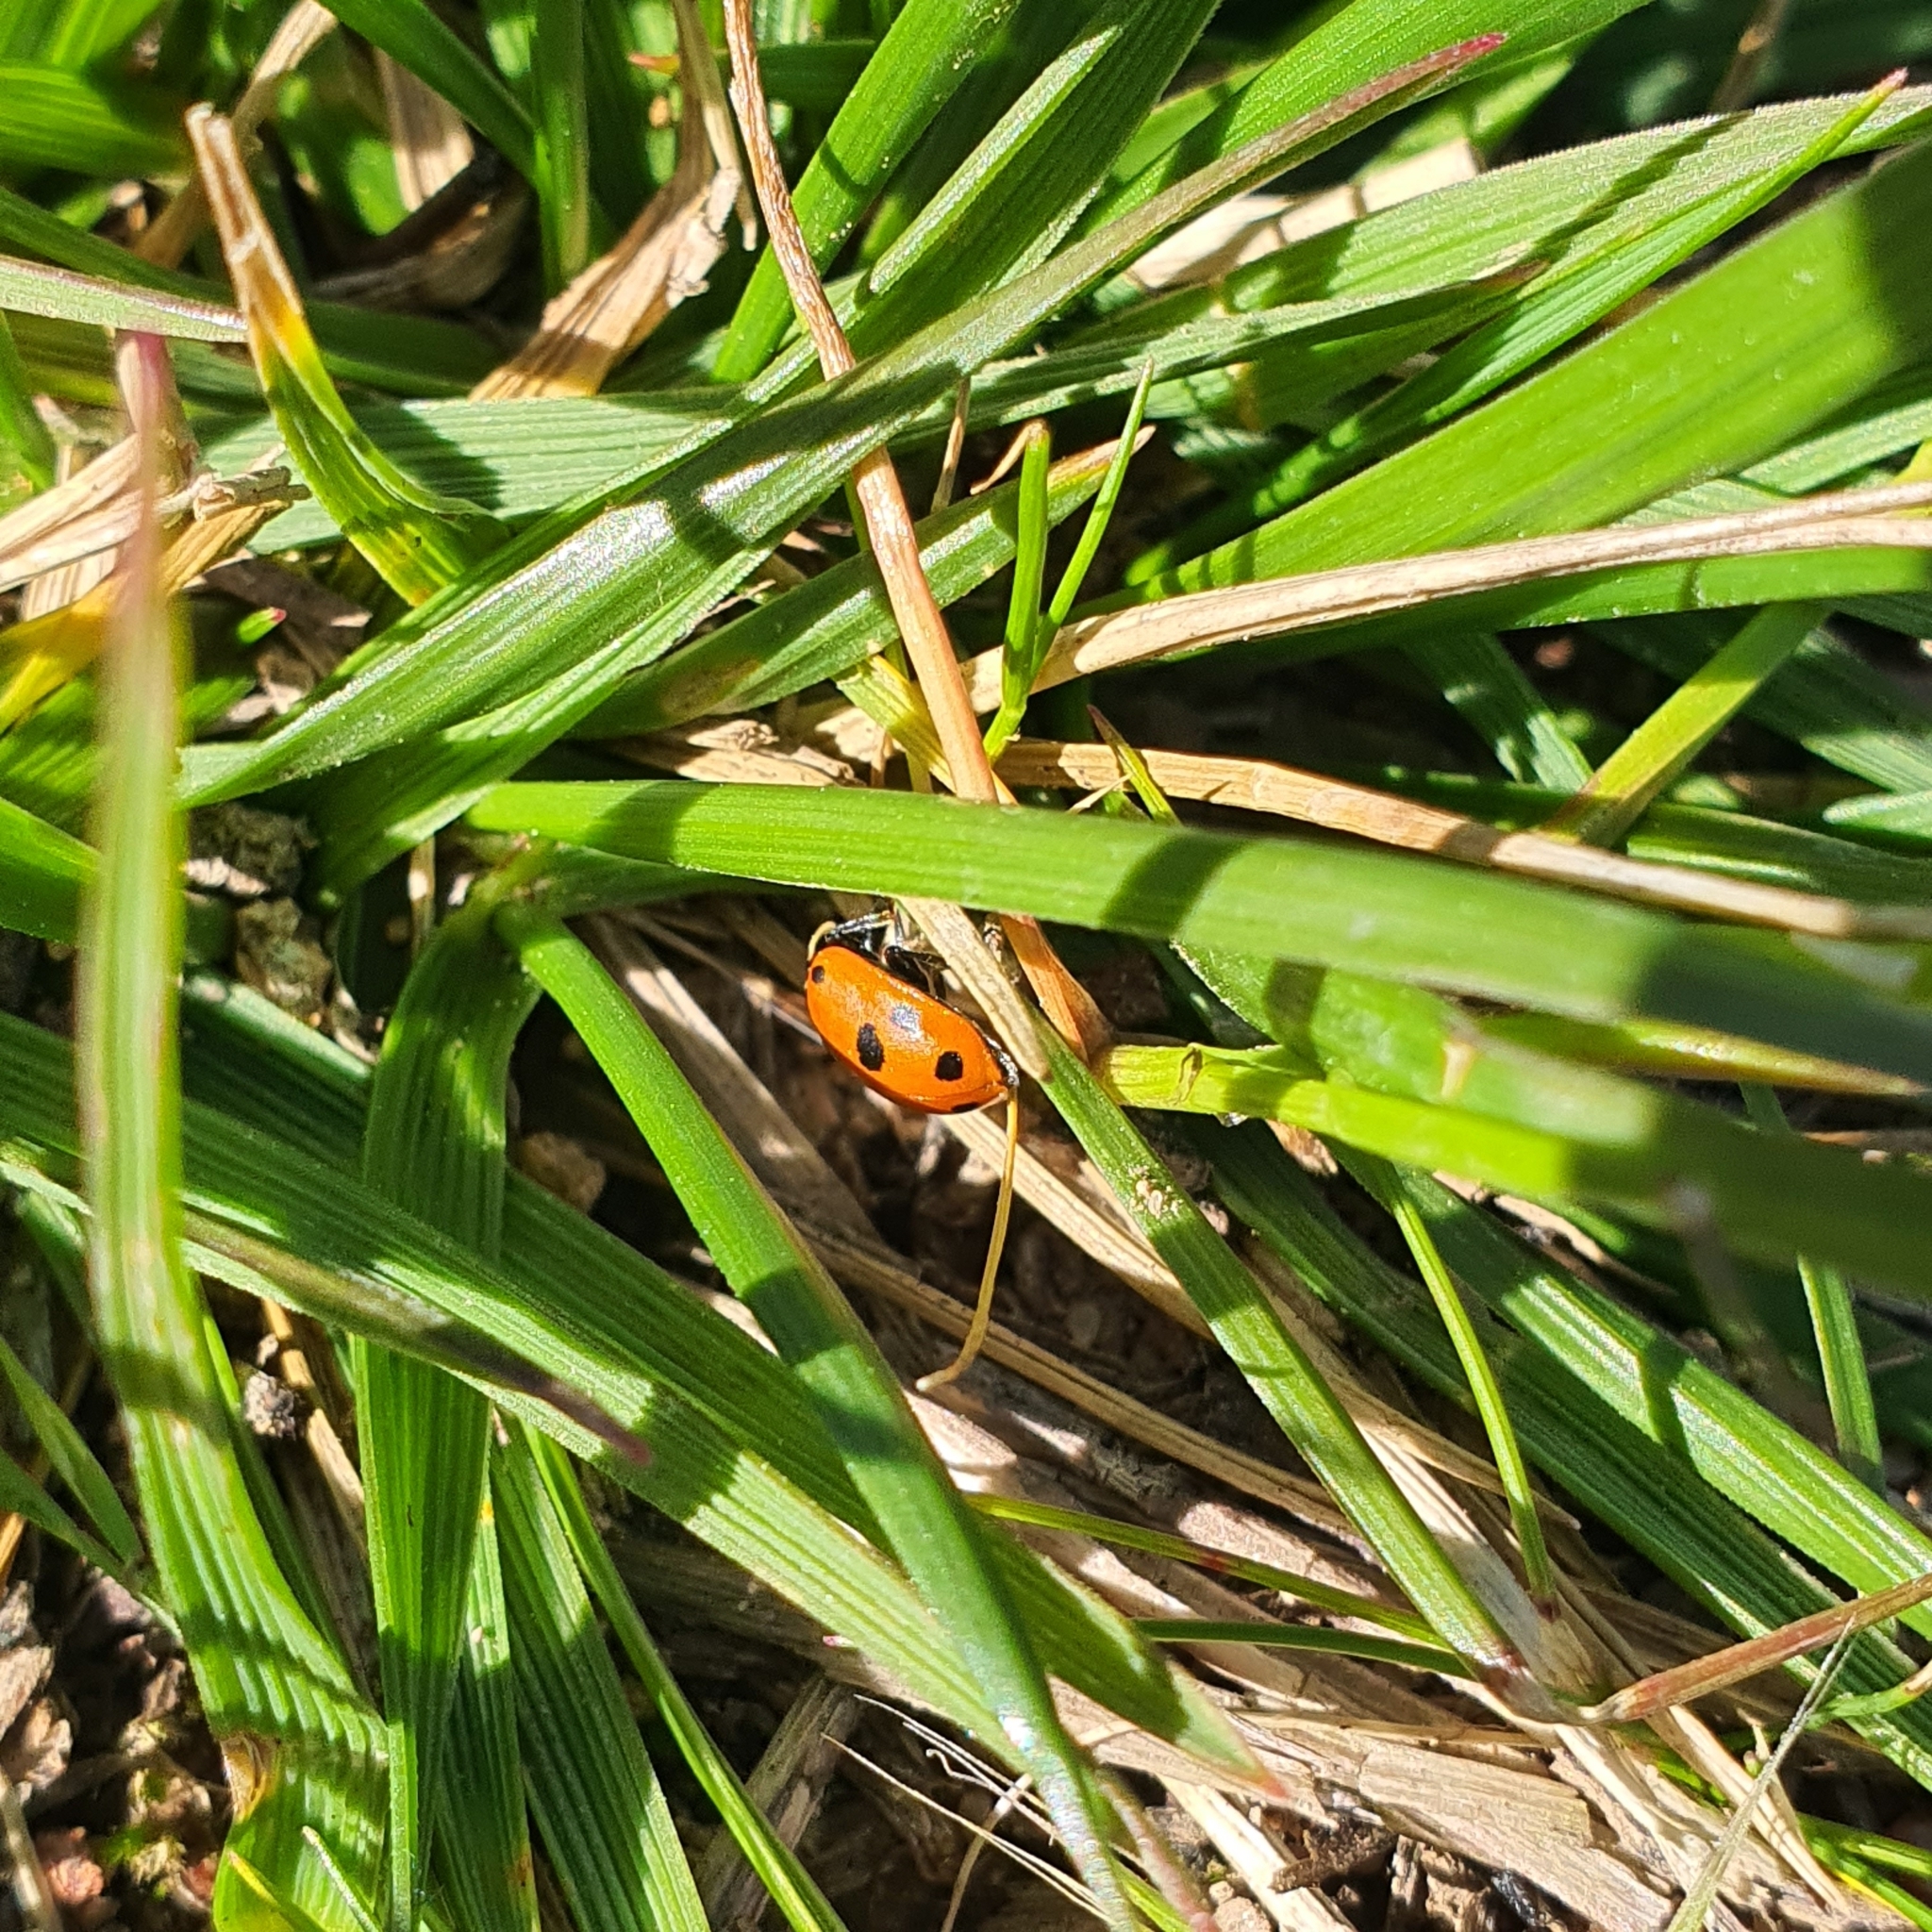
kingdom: Animalia
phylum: Arthropoda
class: Insecta
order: Coleoptera
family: Coccinellidae
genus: Hippodamia
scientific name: Hippodamia variegata
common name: Ladybird beetle
